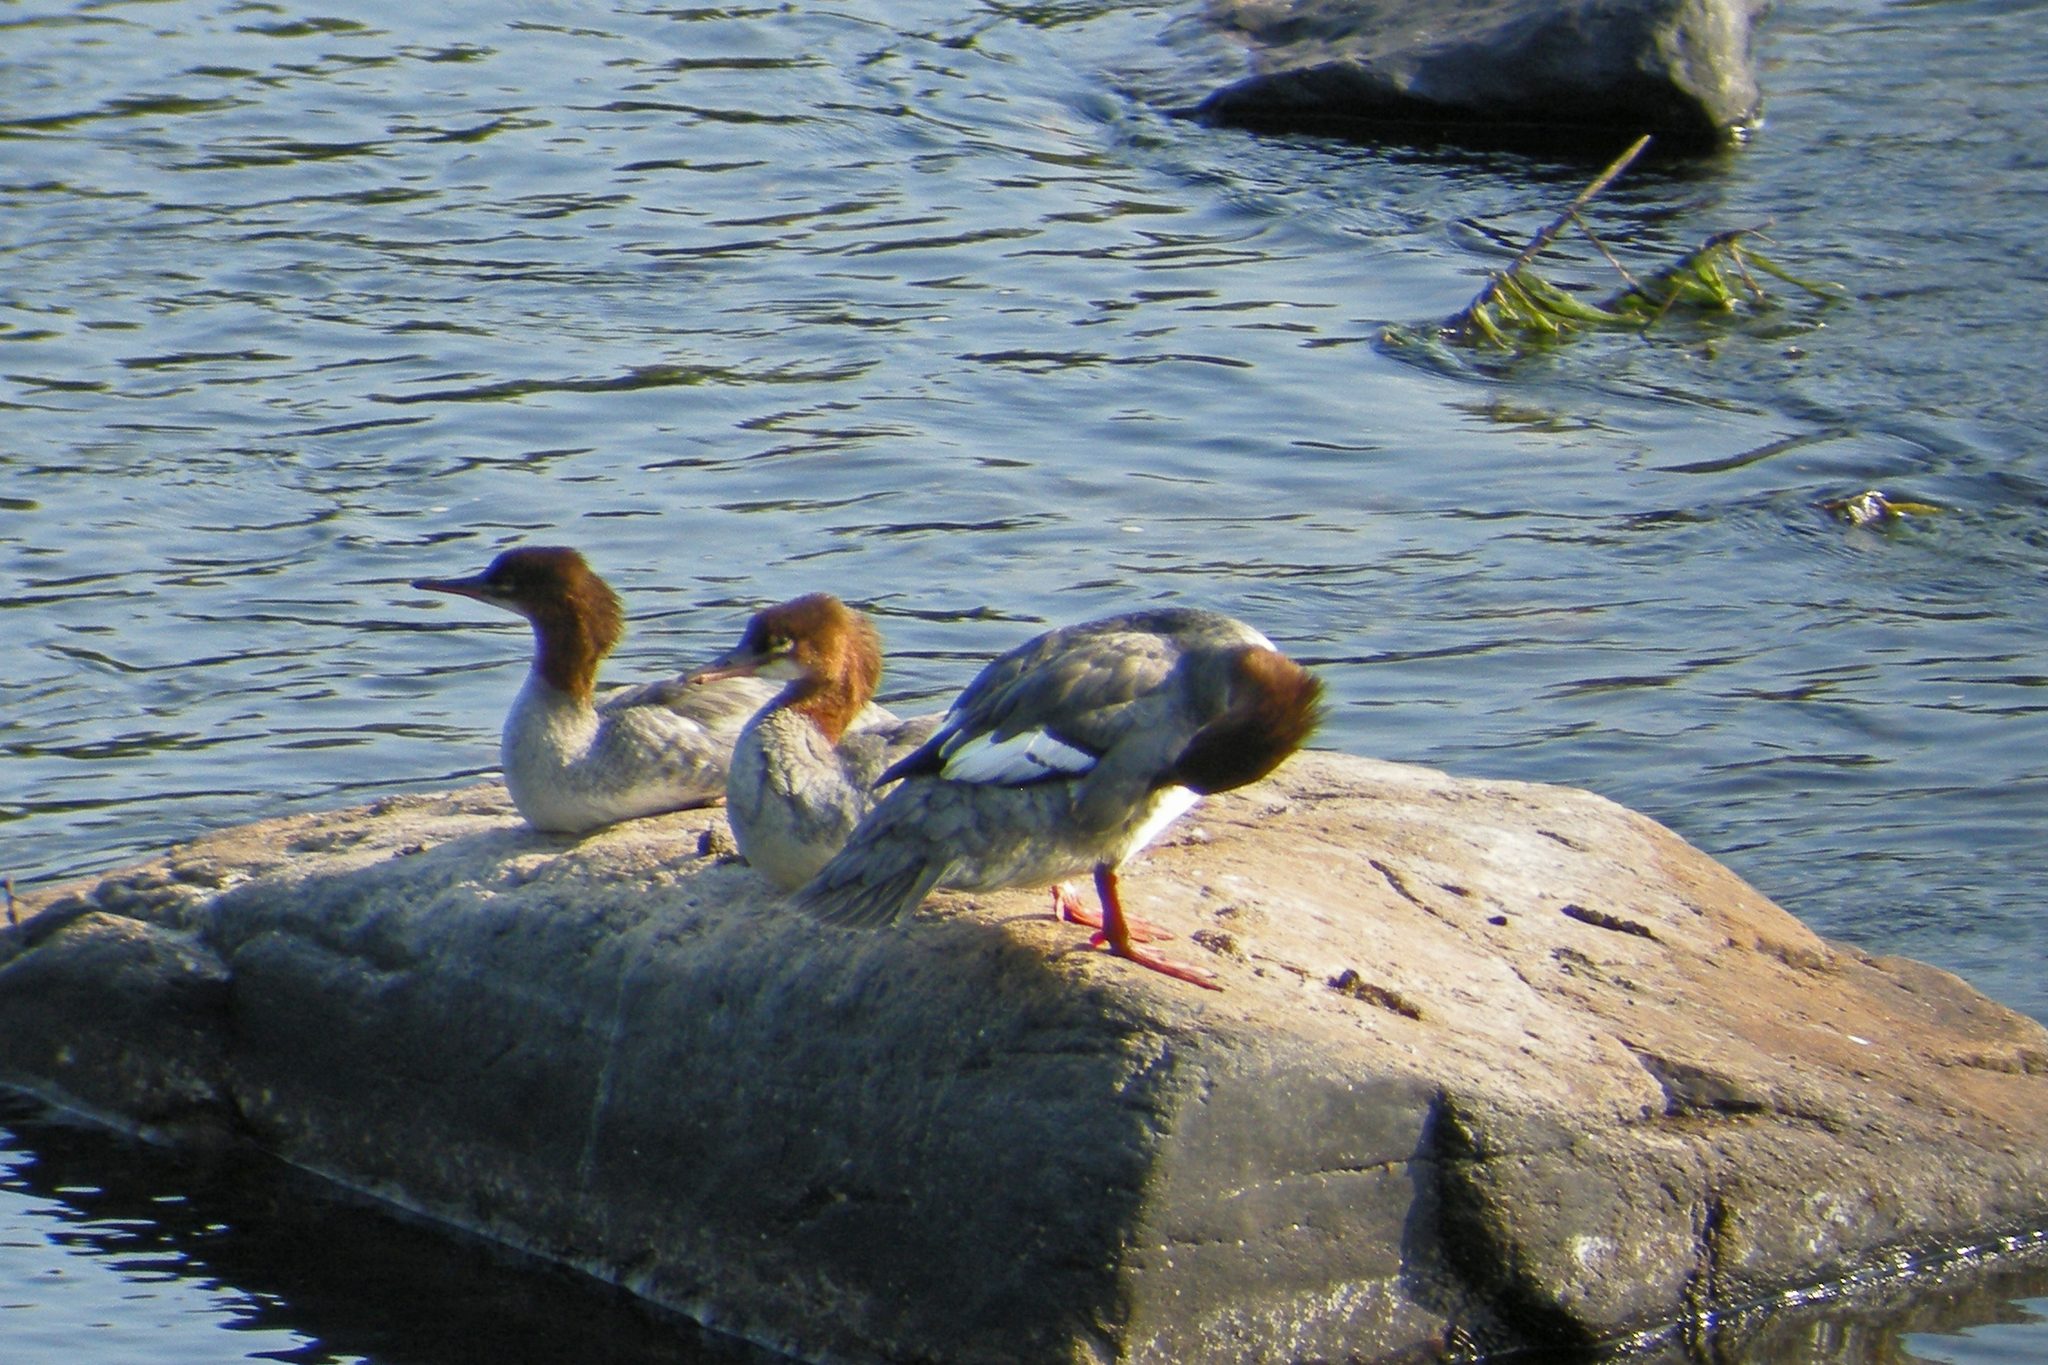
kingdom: Animalia
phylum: Chordata
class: Aves
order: Anseriformes
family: Anatidae
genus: Mergus
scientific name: Mergus merganser
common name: Common merganser
